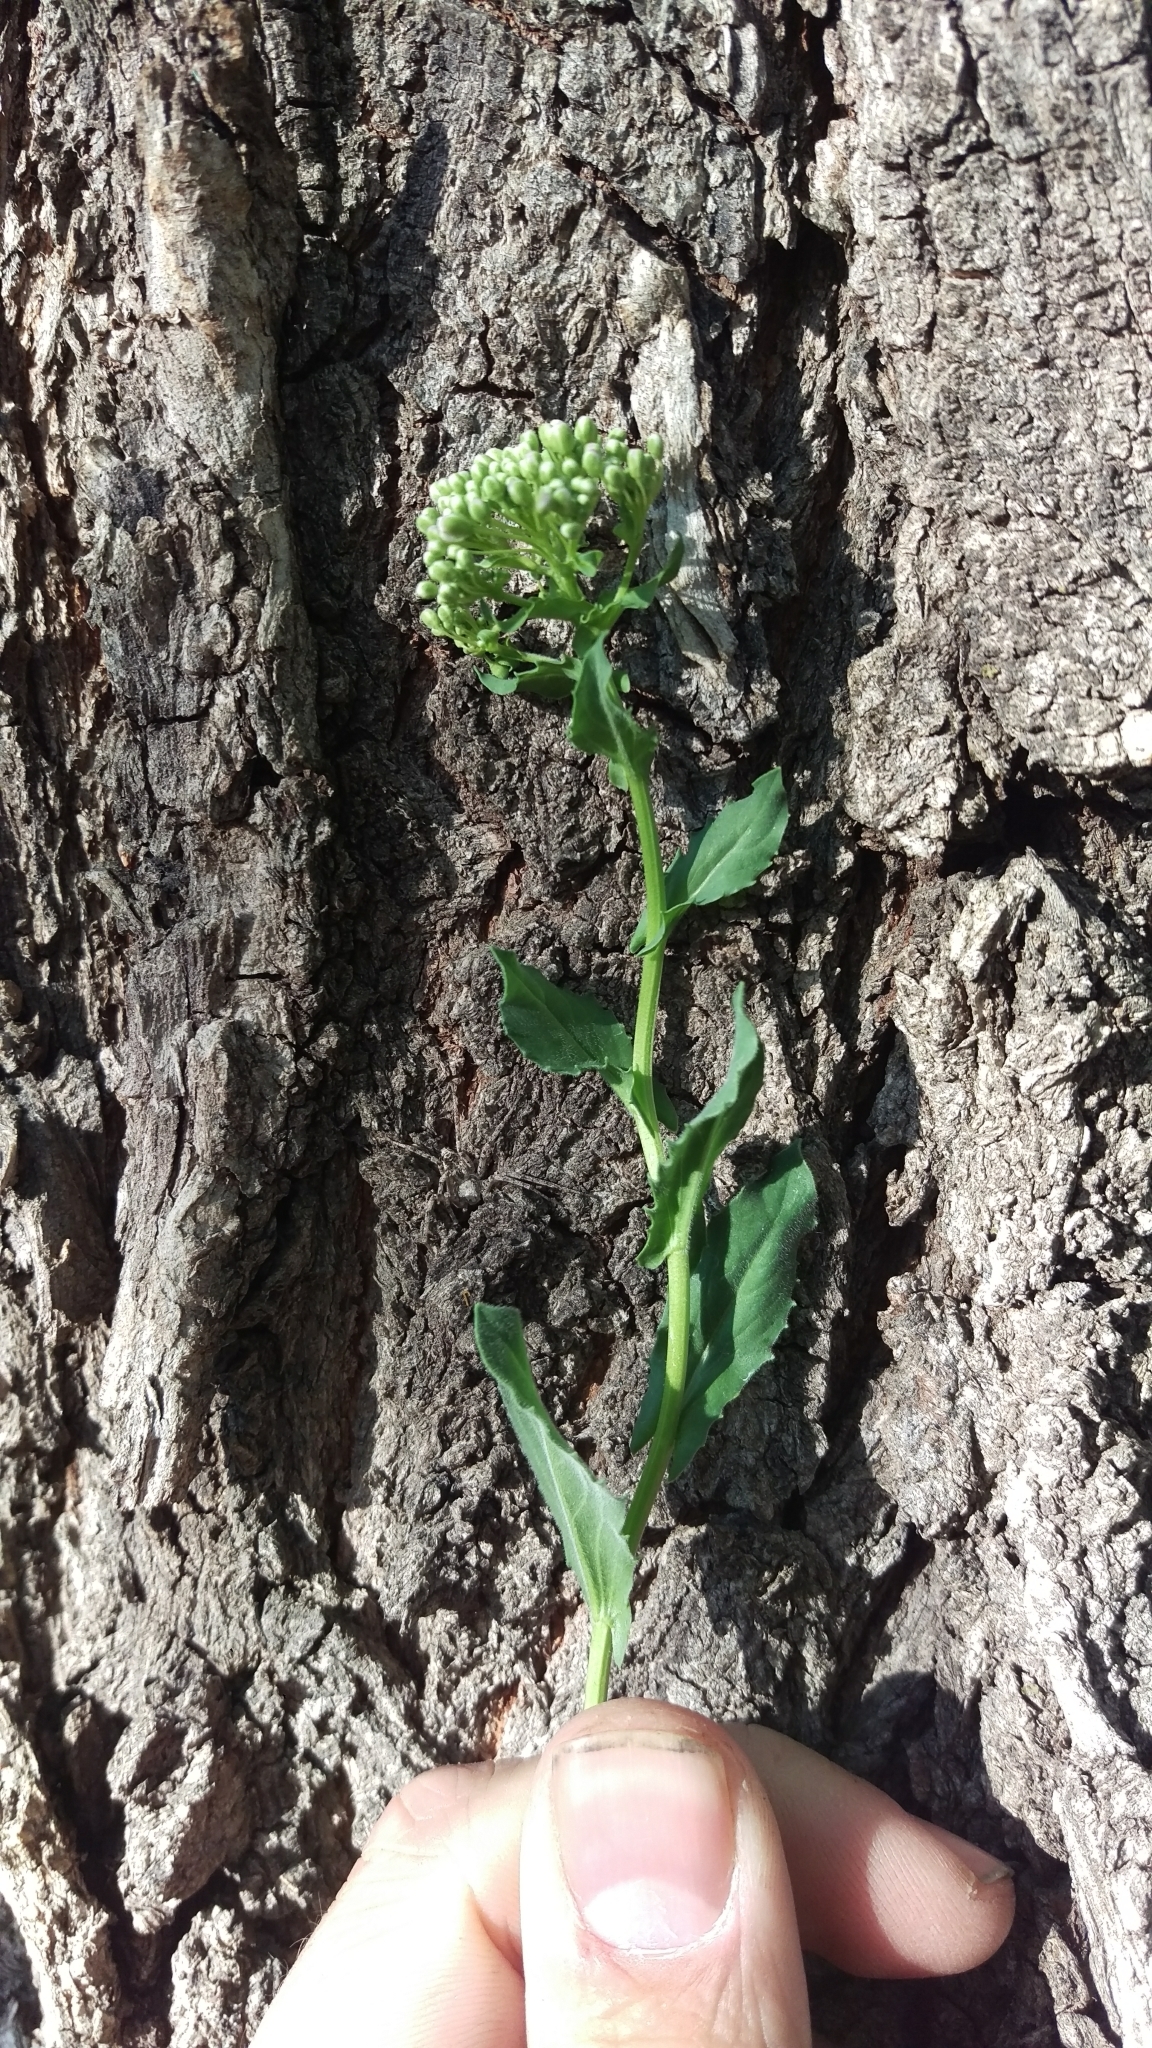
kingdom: Plantae
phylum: Tracheophyta
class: Magnoliopsida
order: Brassicales
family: Brassicaceae
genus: Lepidium
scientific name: Lepidium draba
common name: Hoary cress
